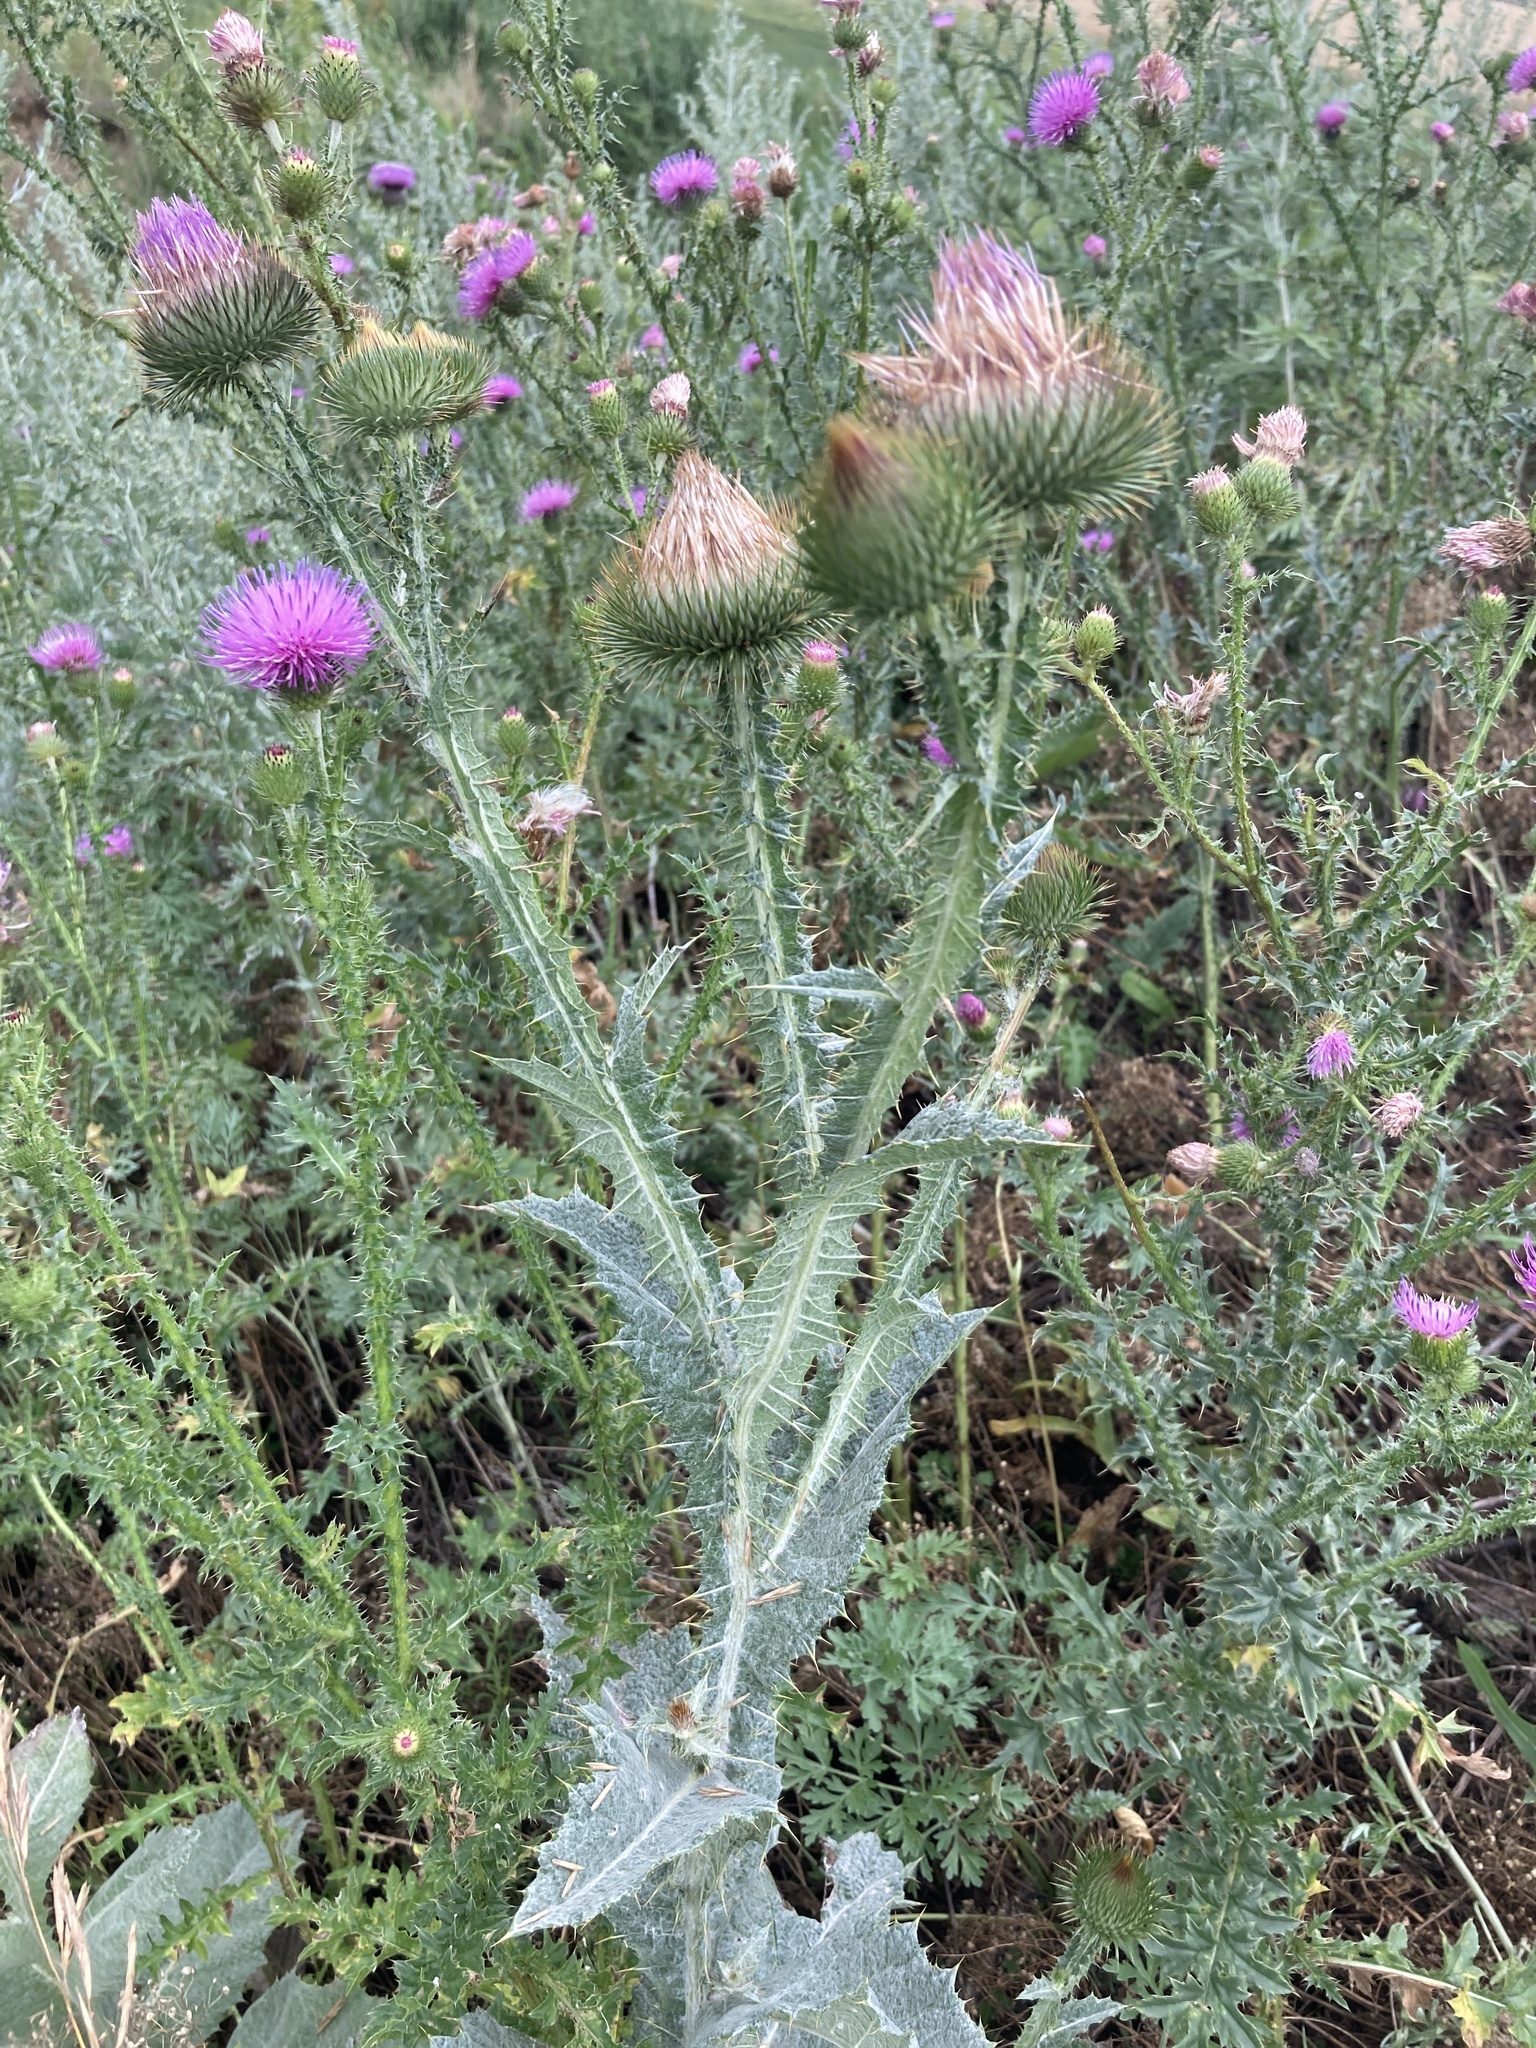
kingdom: Plantae
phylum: Tracheophyta
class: Magnoliopsida
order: Asterales
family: Asteraceae
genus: Onopordum
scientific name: Onopordum acanthium
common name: Scotch thistle
